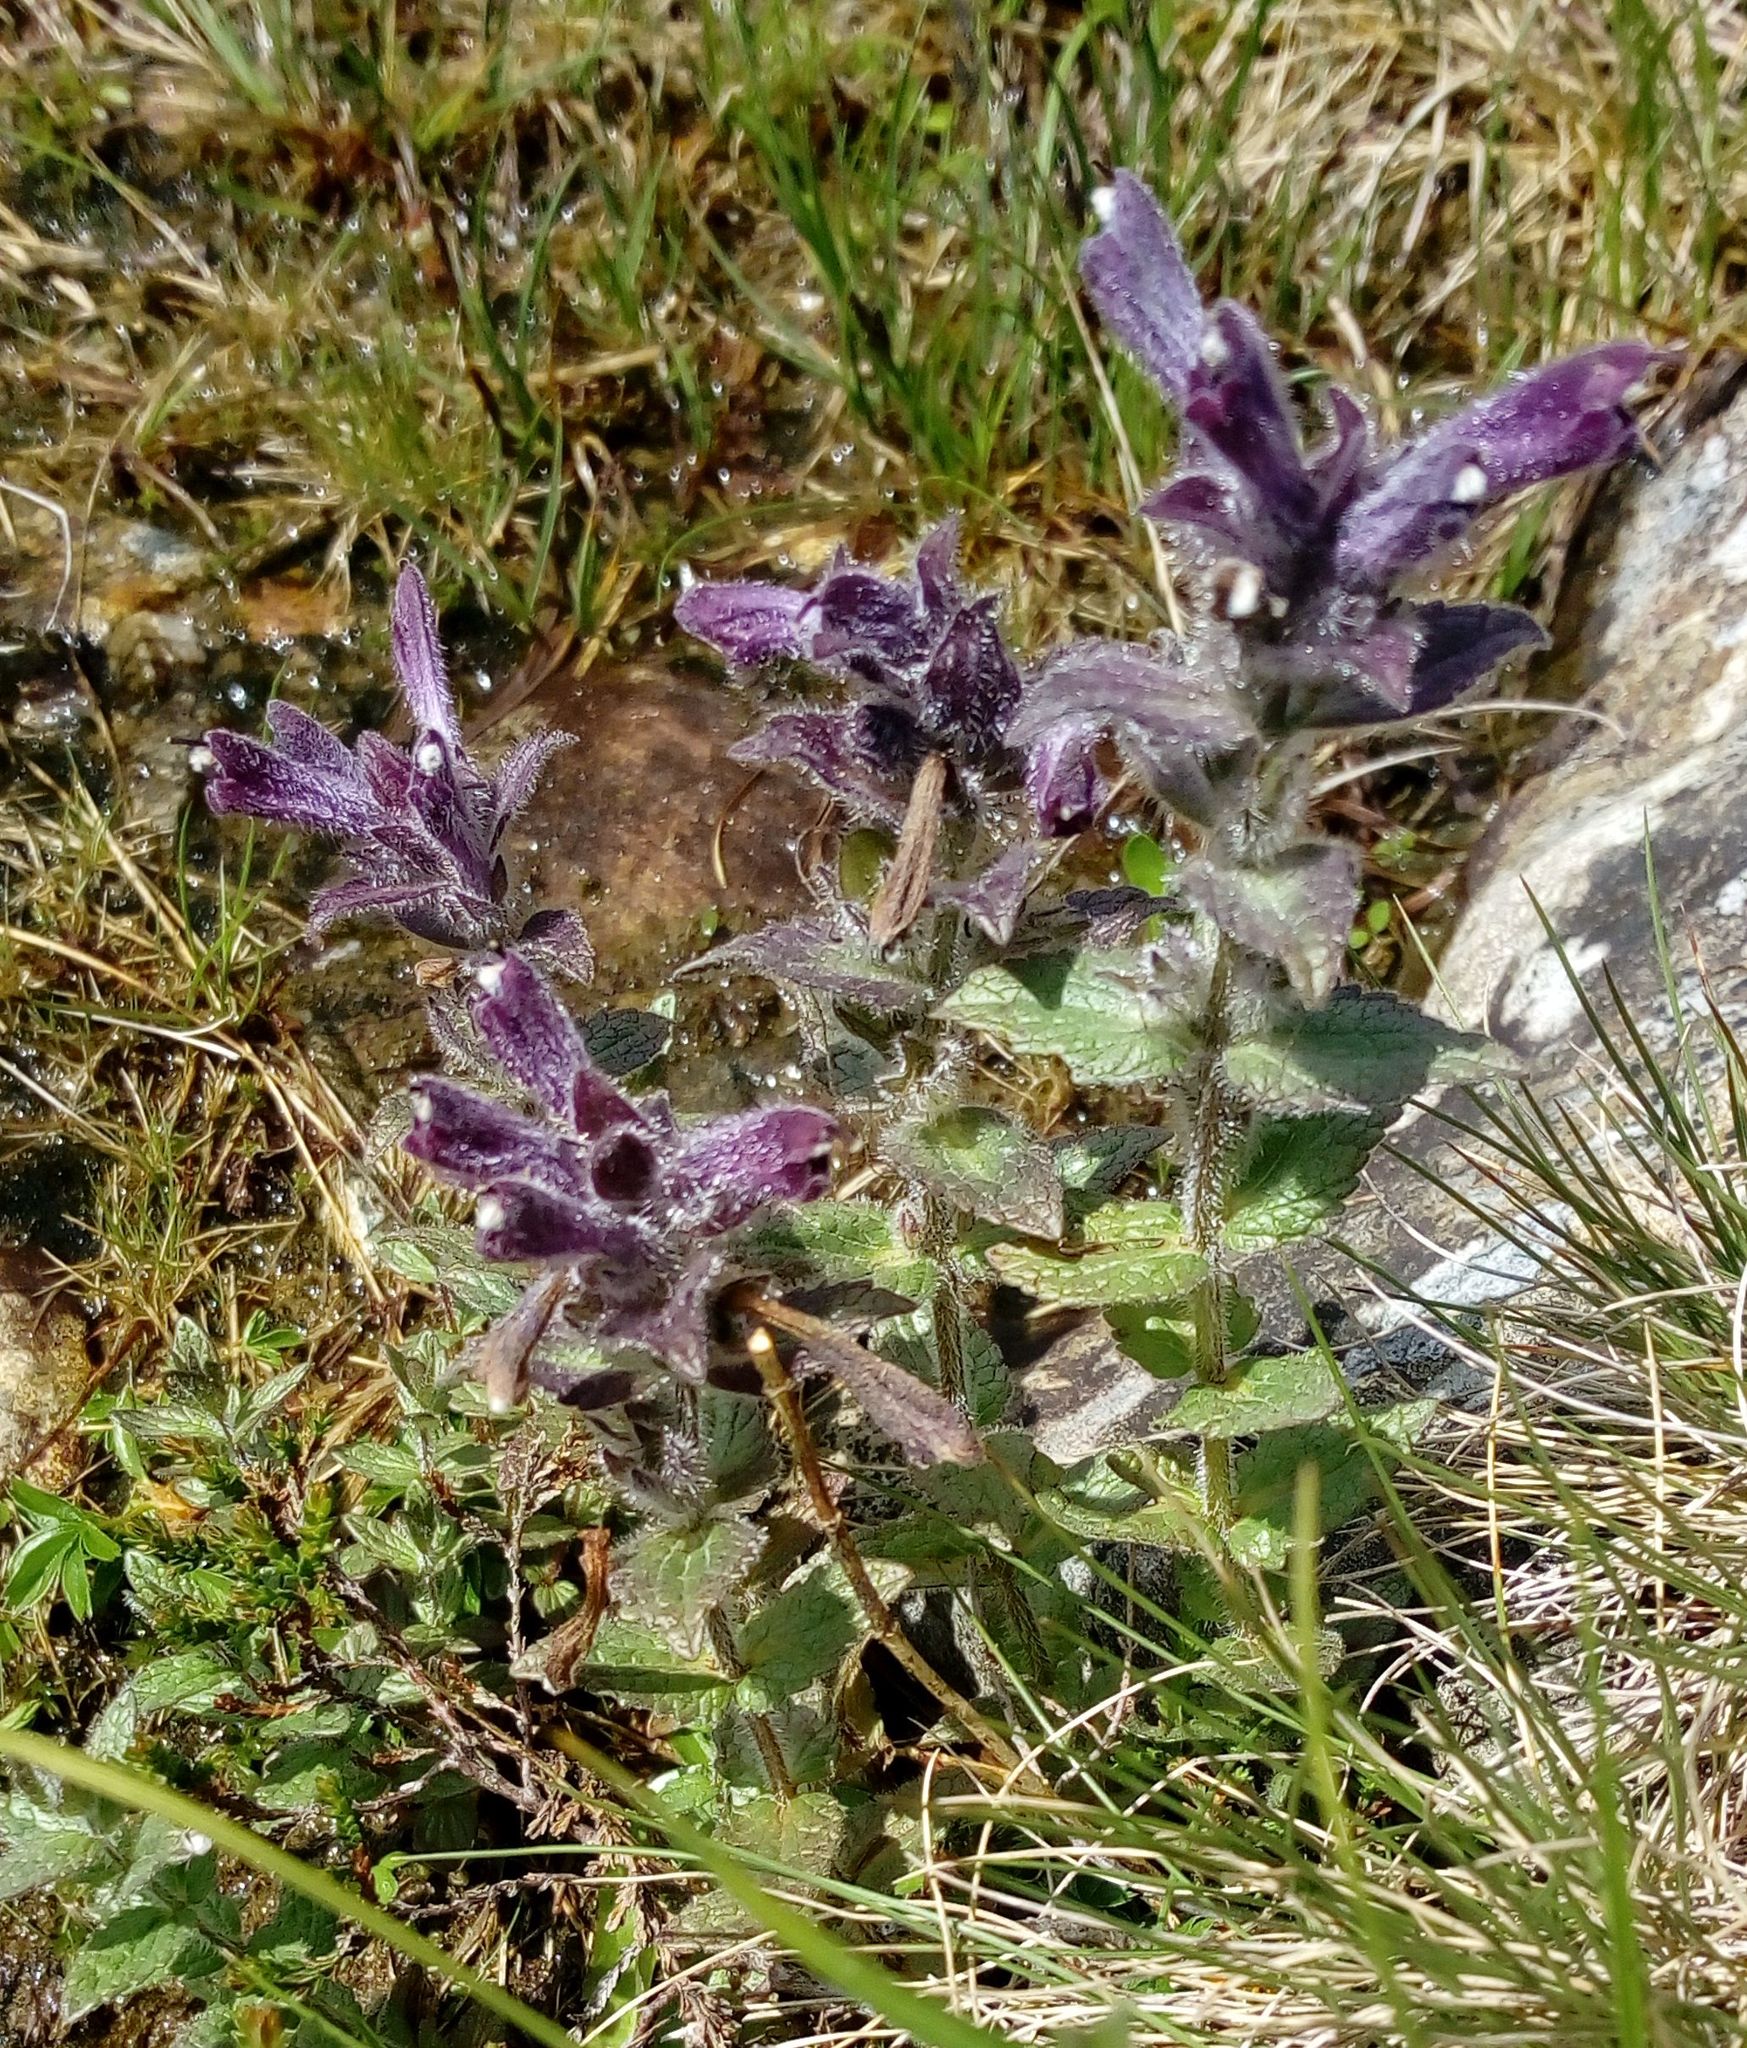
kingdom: Plantae
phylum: Tracheophyta
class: Magnoliopsida
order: Lamiales
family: Orobanchaceae
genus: Bartsia
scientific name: Bartsia alpina
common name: Alpine bartsia
